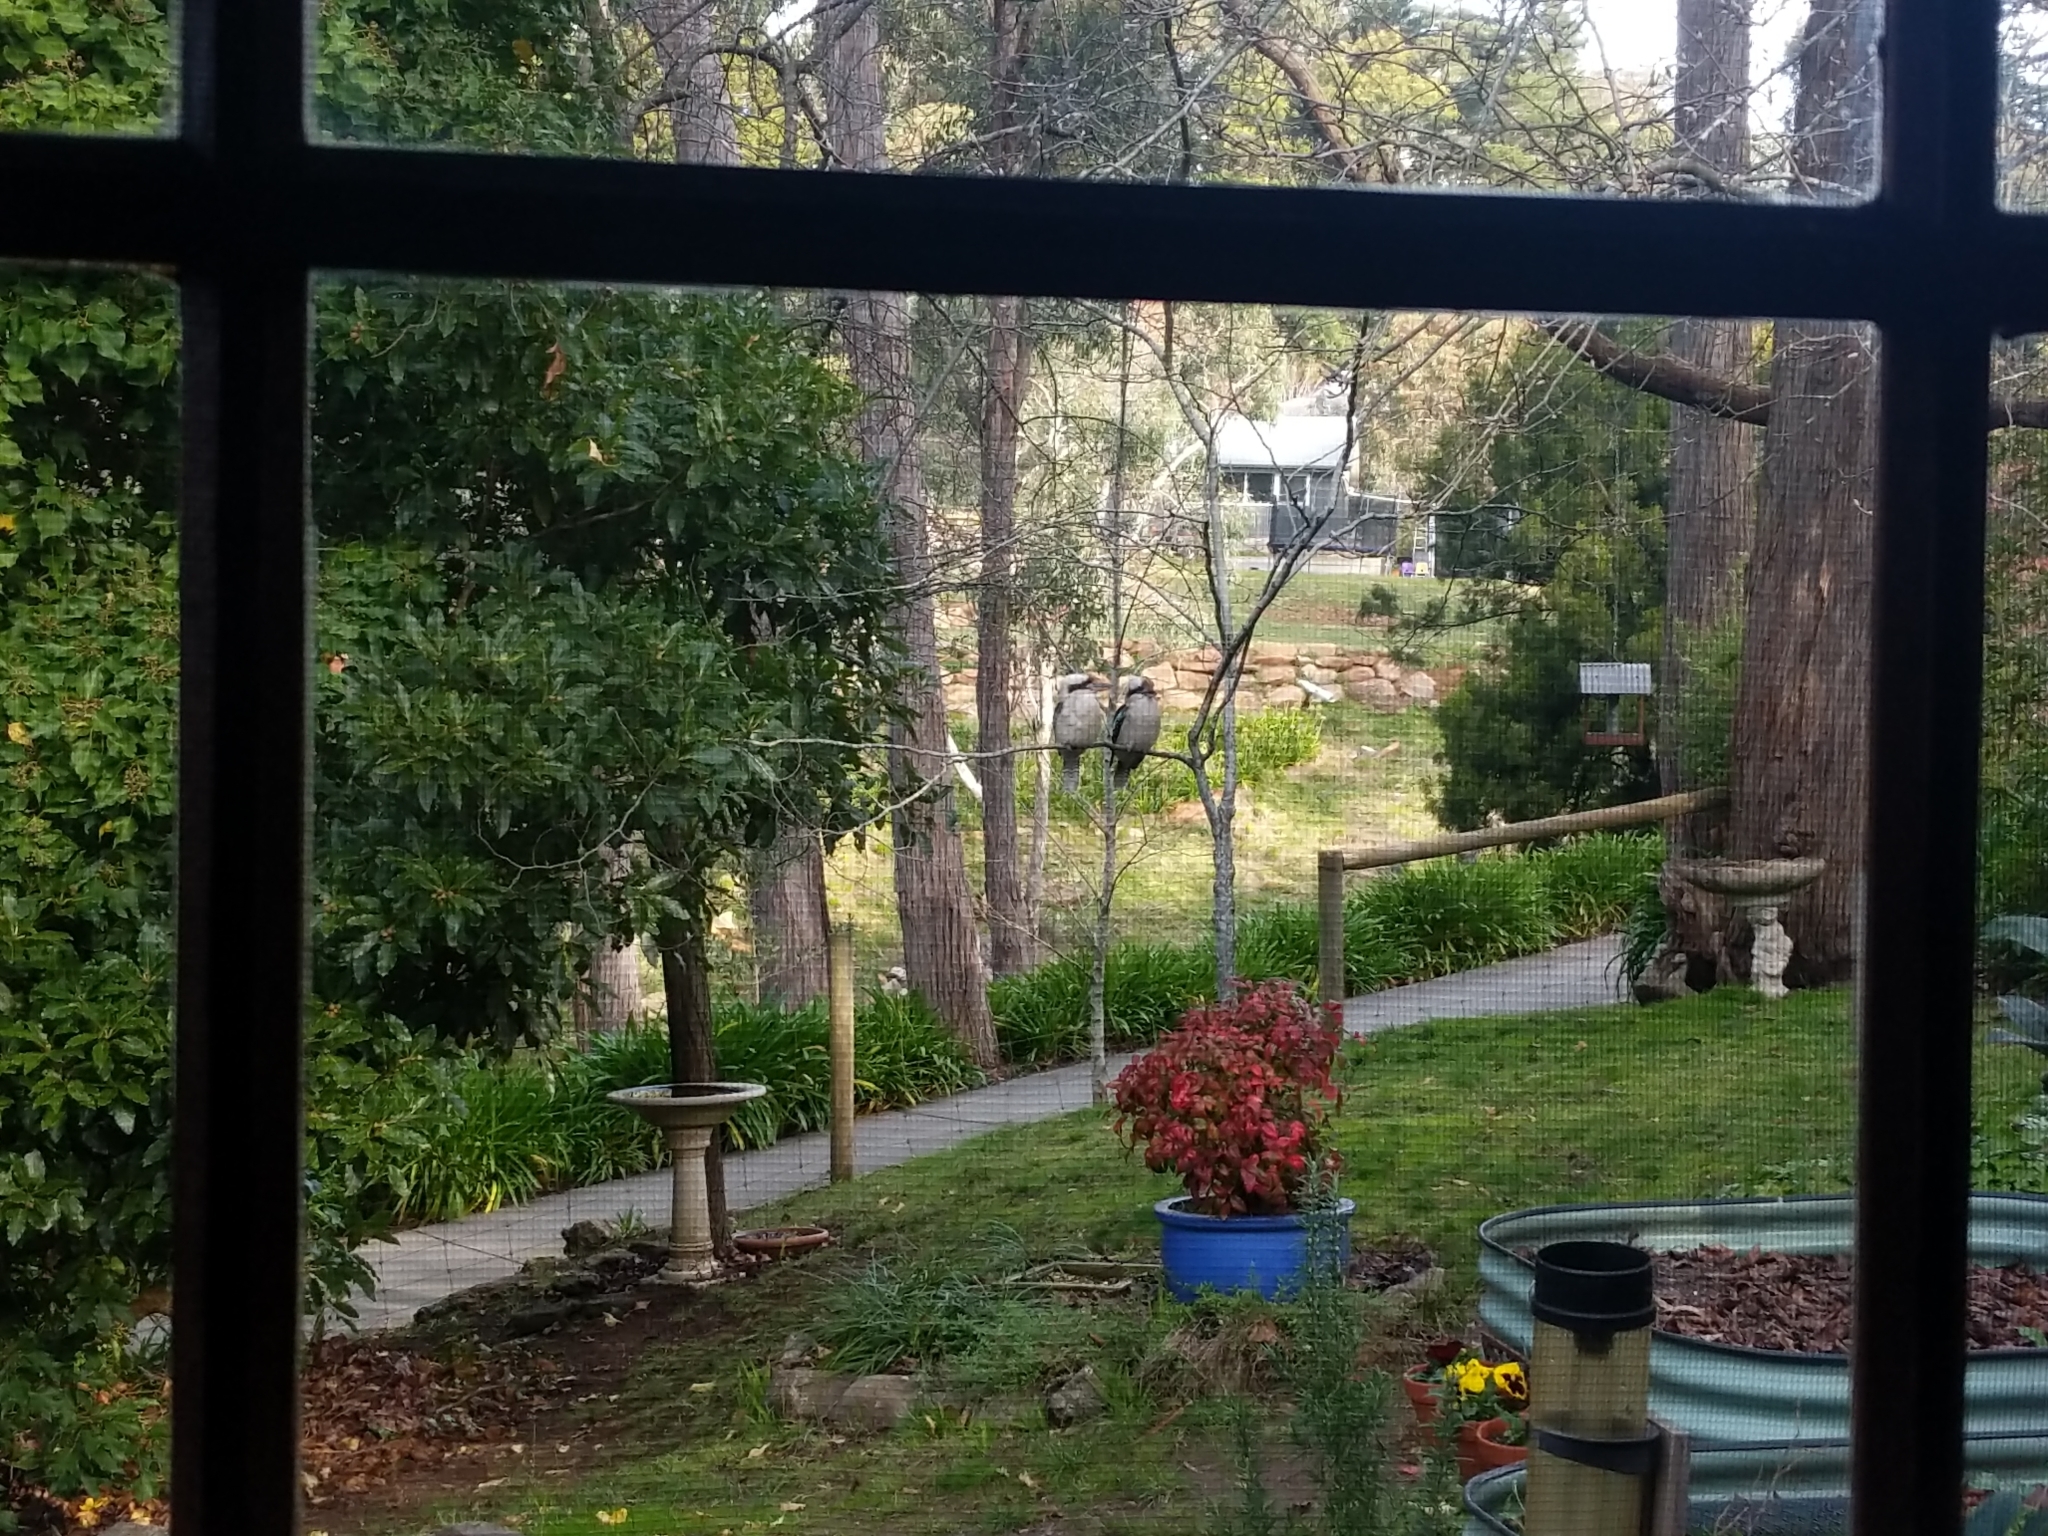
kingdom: Animalia
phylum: Chordata
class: Aves
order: Coraciiformes
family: Alcedinidae
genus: Dacelo
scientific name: Dacelo novaeguineae
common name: Laughing kookaburra
